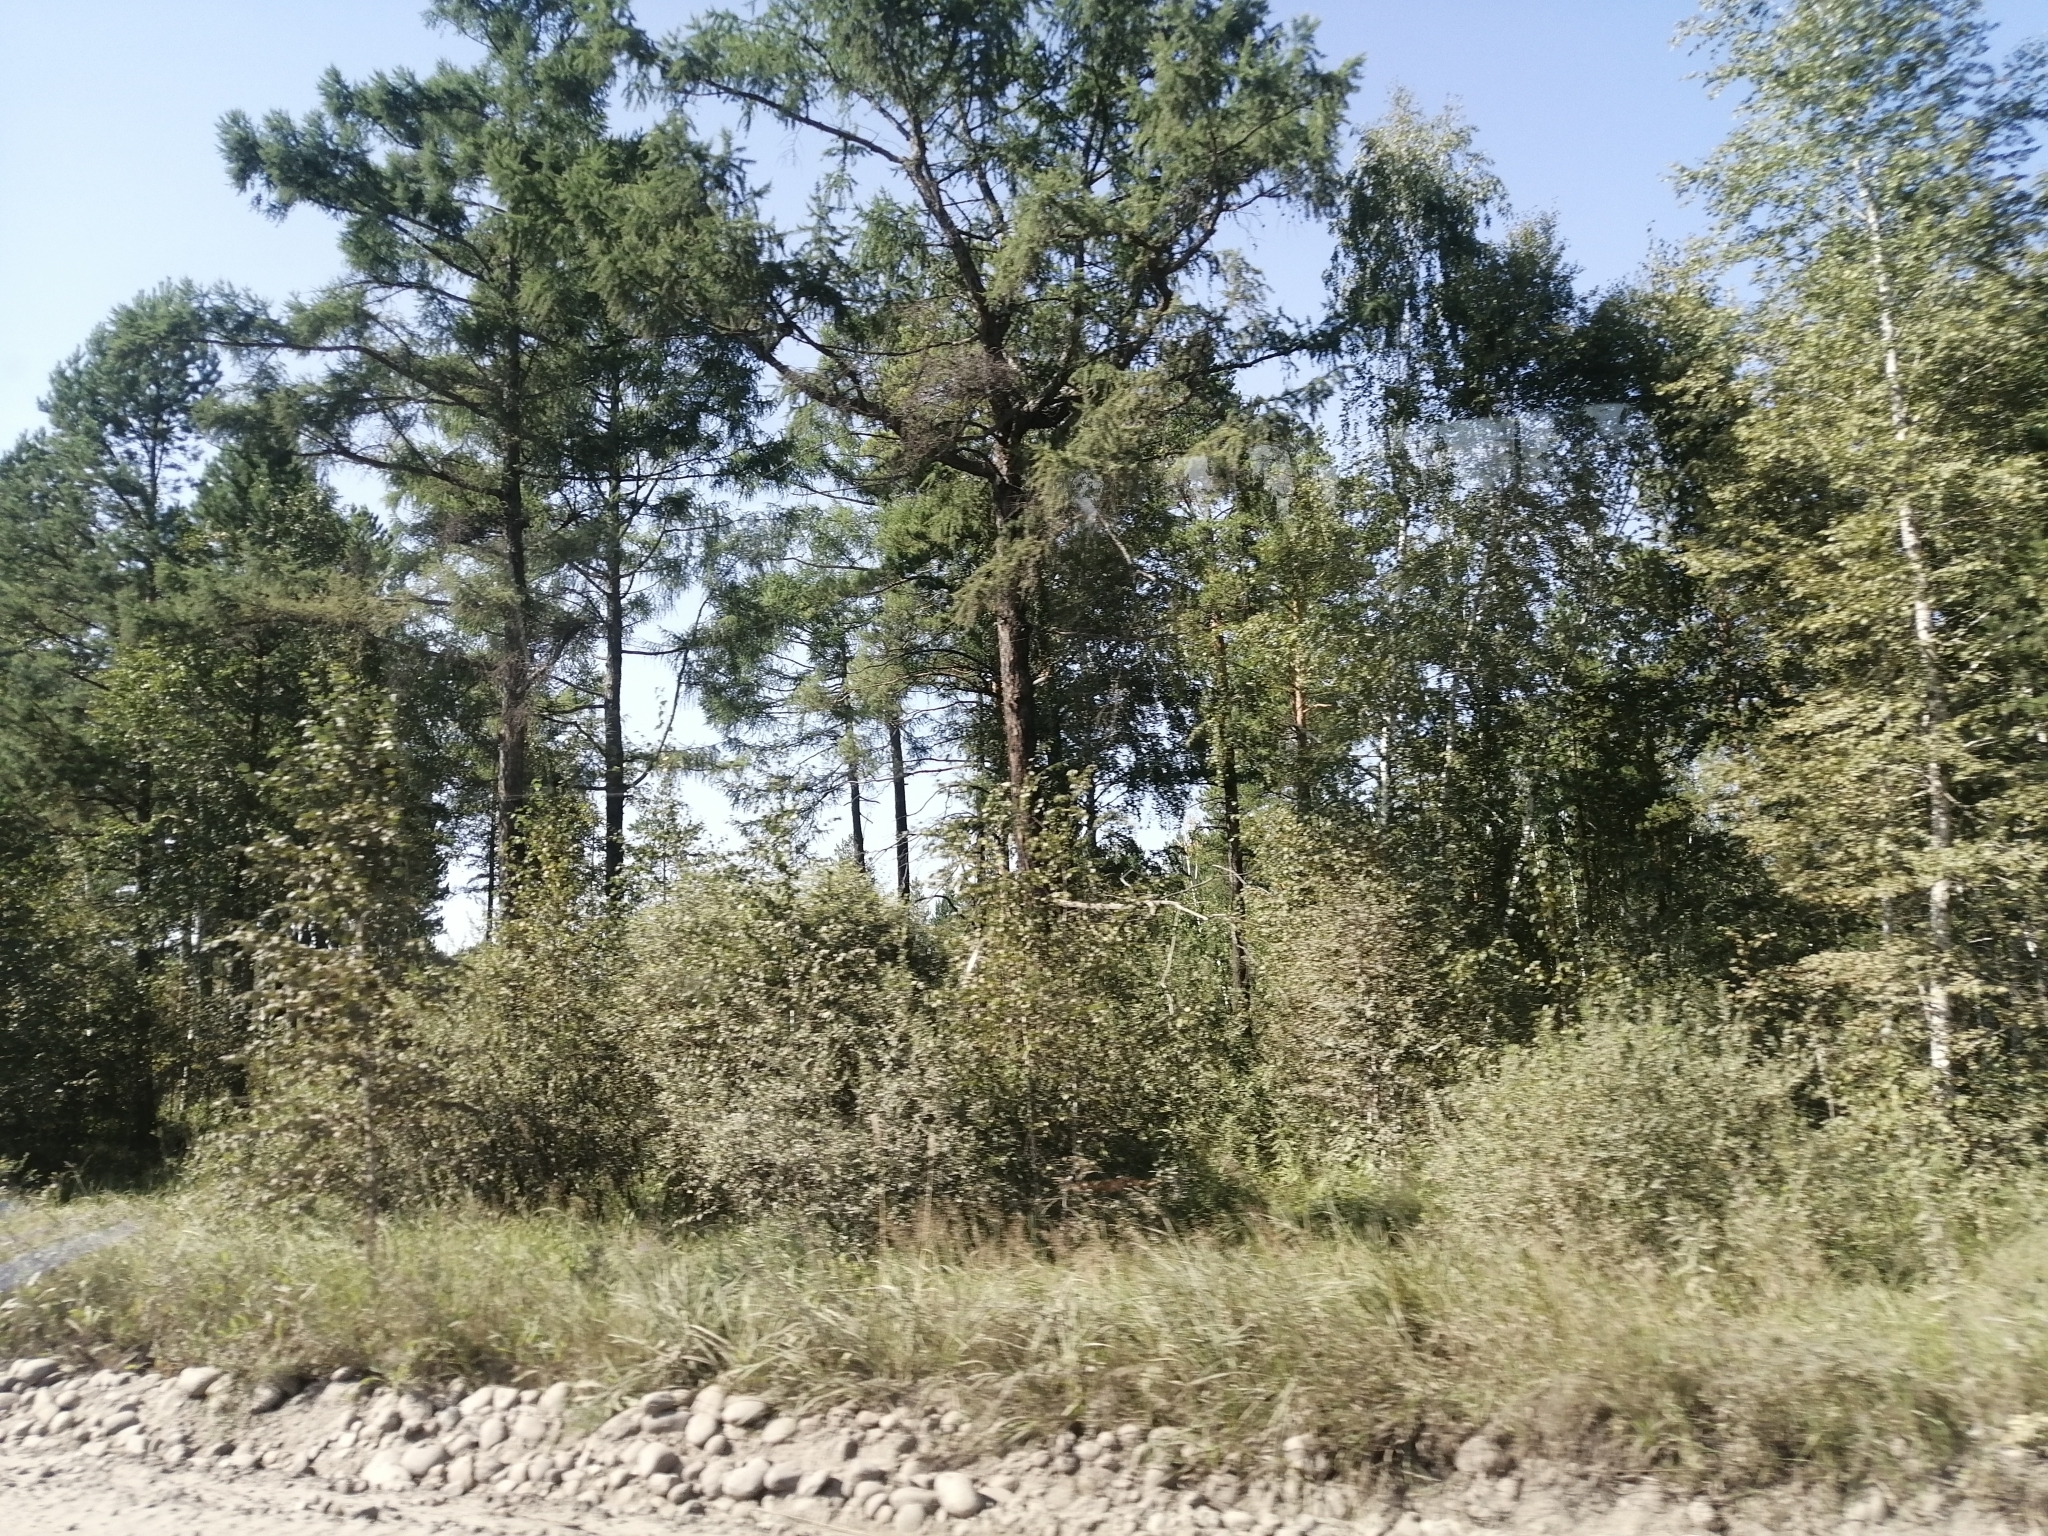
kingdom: Plantae
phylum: Tracheophyta
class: Pinopsida
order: Pinales
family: Pinaceae
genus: Larix
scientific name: Larix sibirica
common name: Siberian larch
